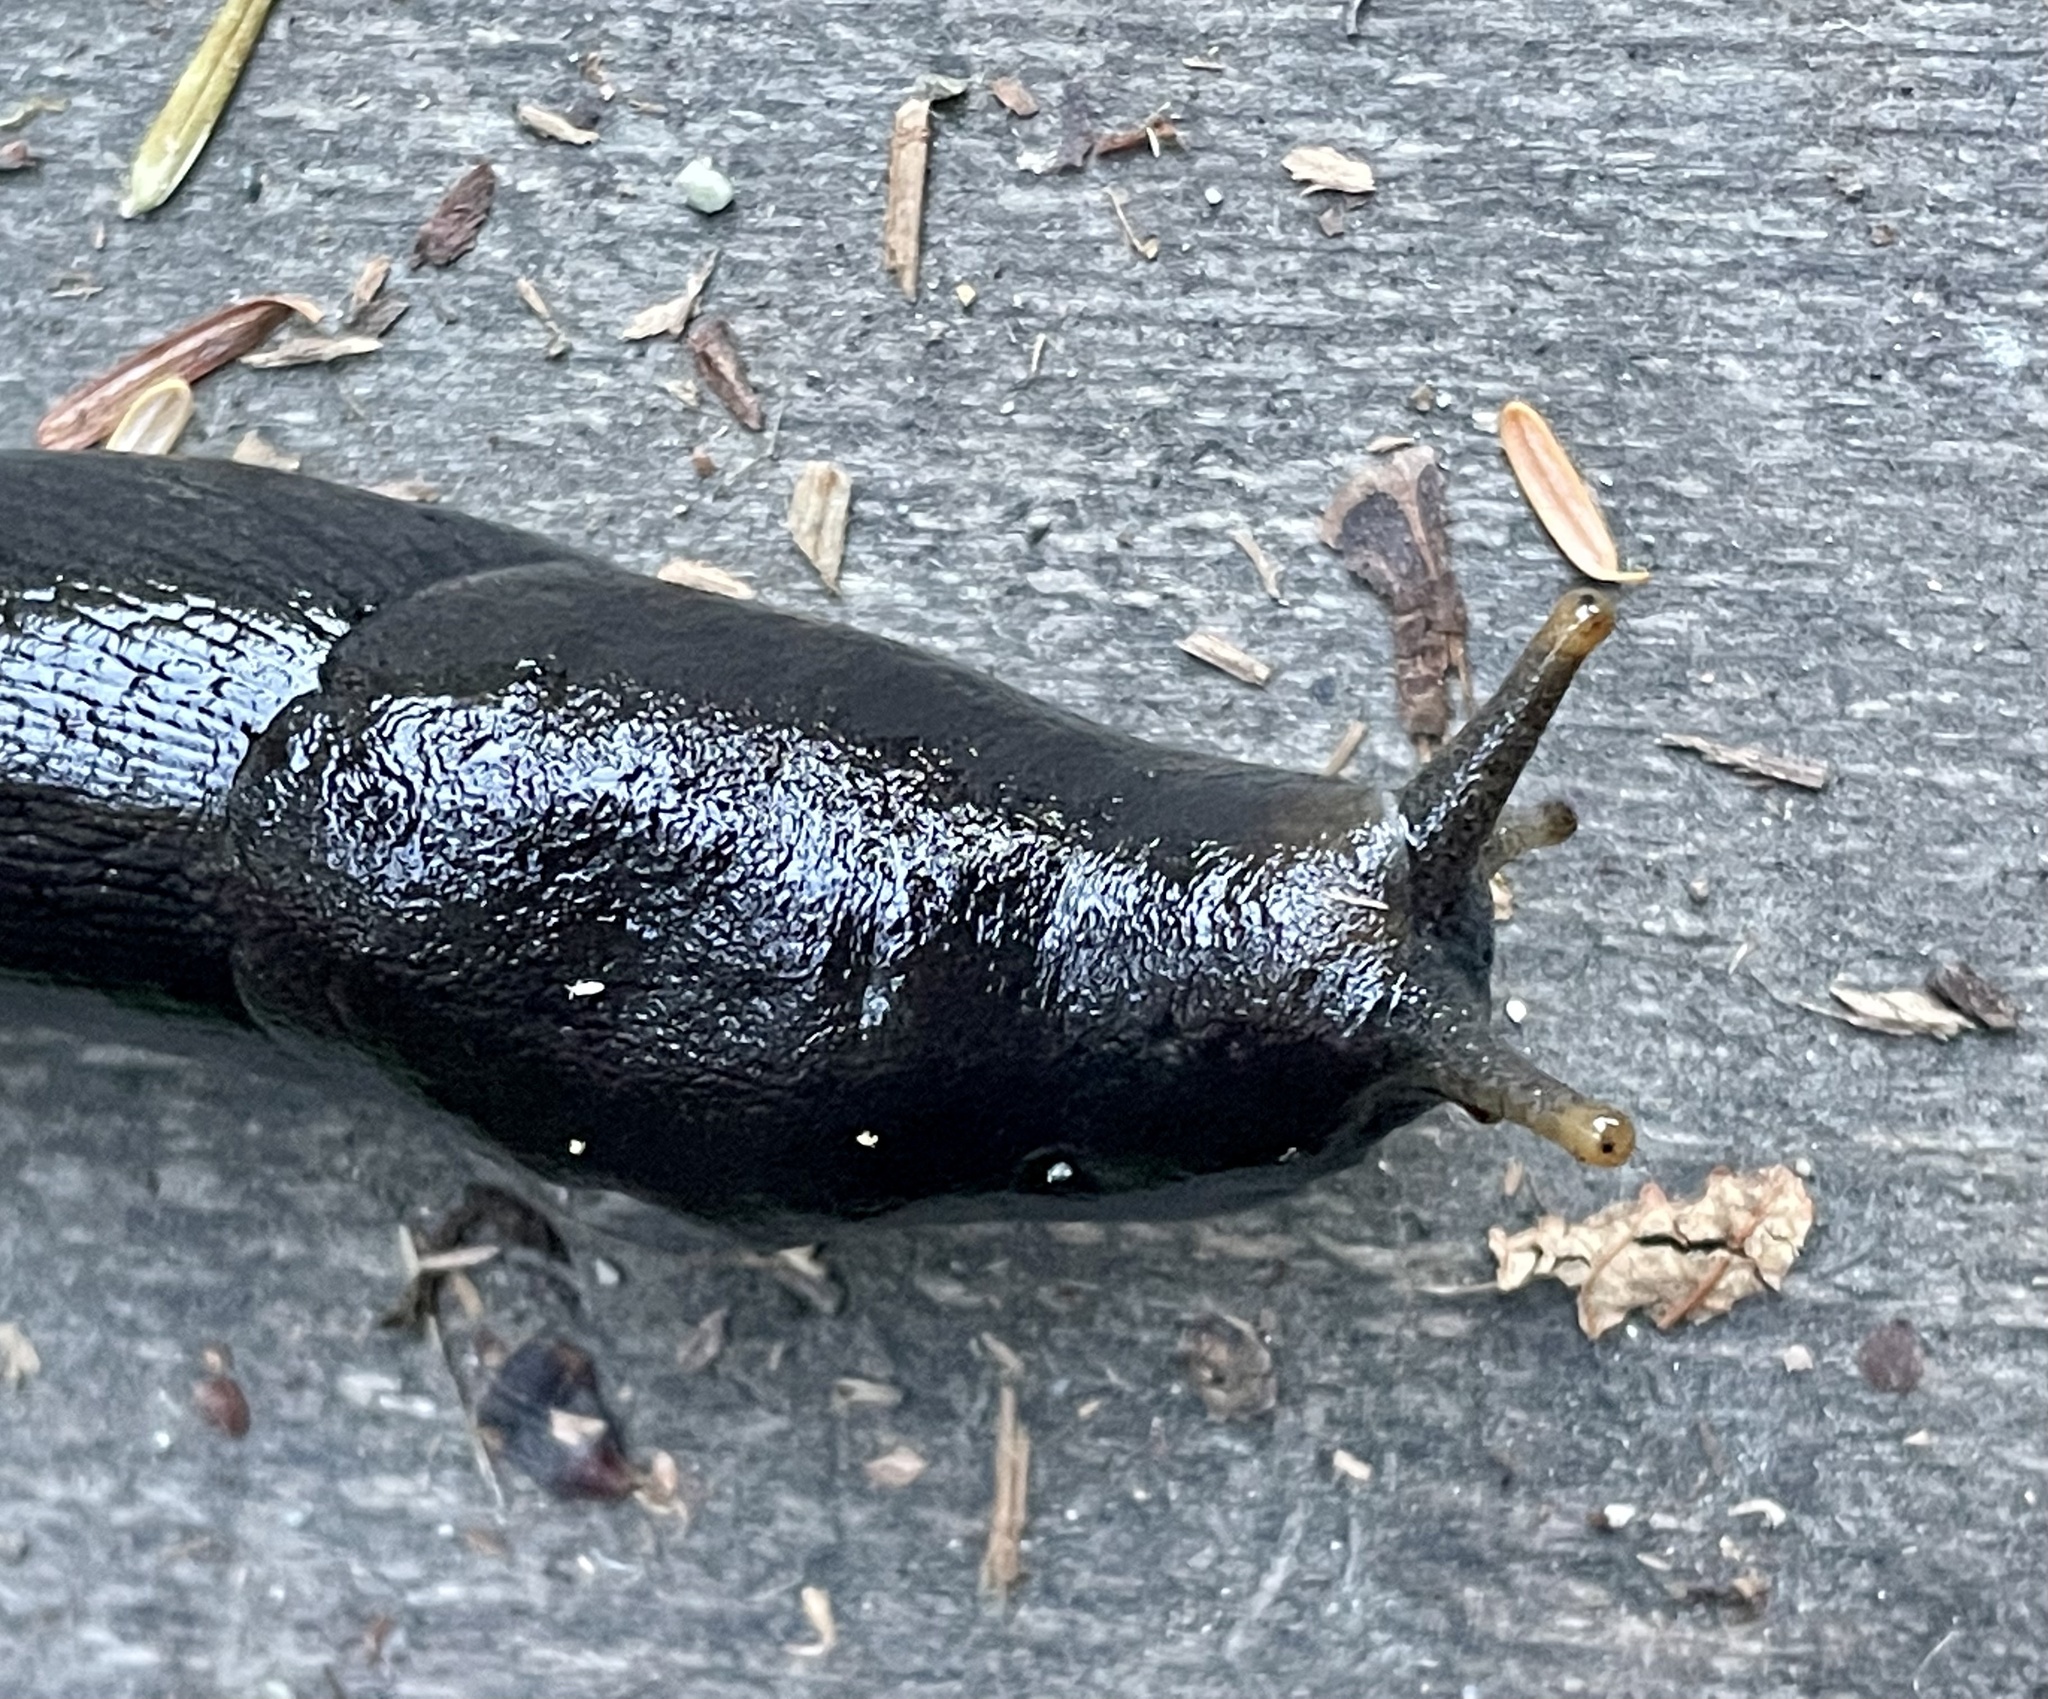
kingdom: Animalia
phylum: Mollusca
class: Gastropoda
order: Stylommatophora
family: Ariolimacidae
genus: Ariolimax
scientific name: Ariolimax columbianus
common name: Pacific banana slug
